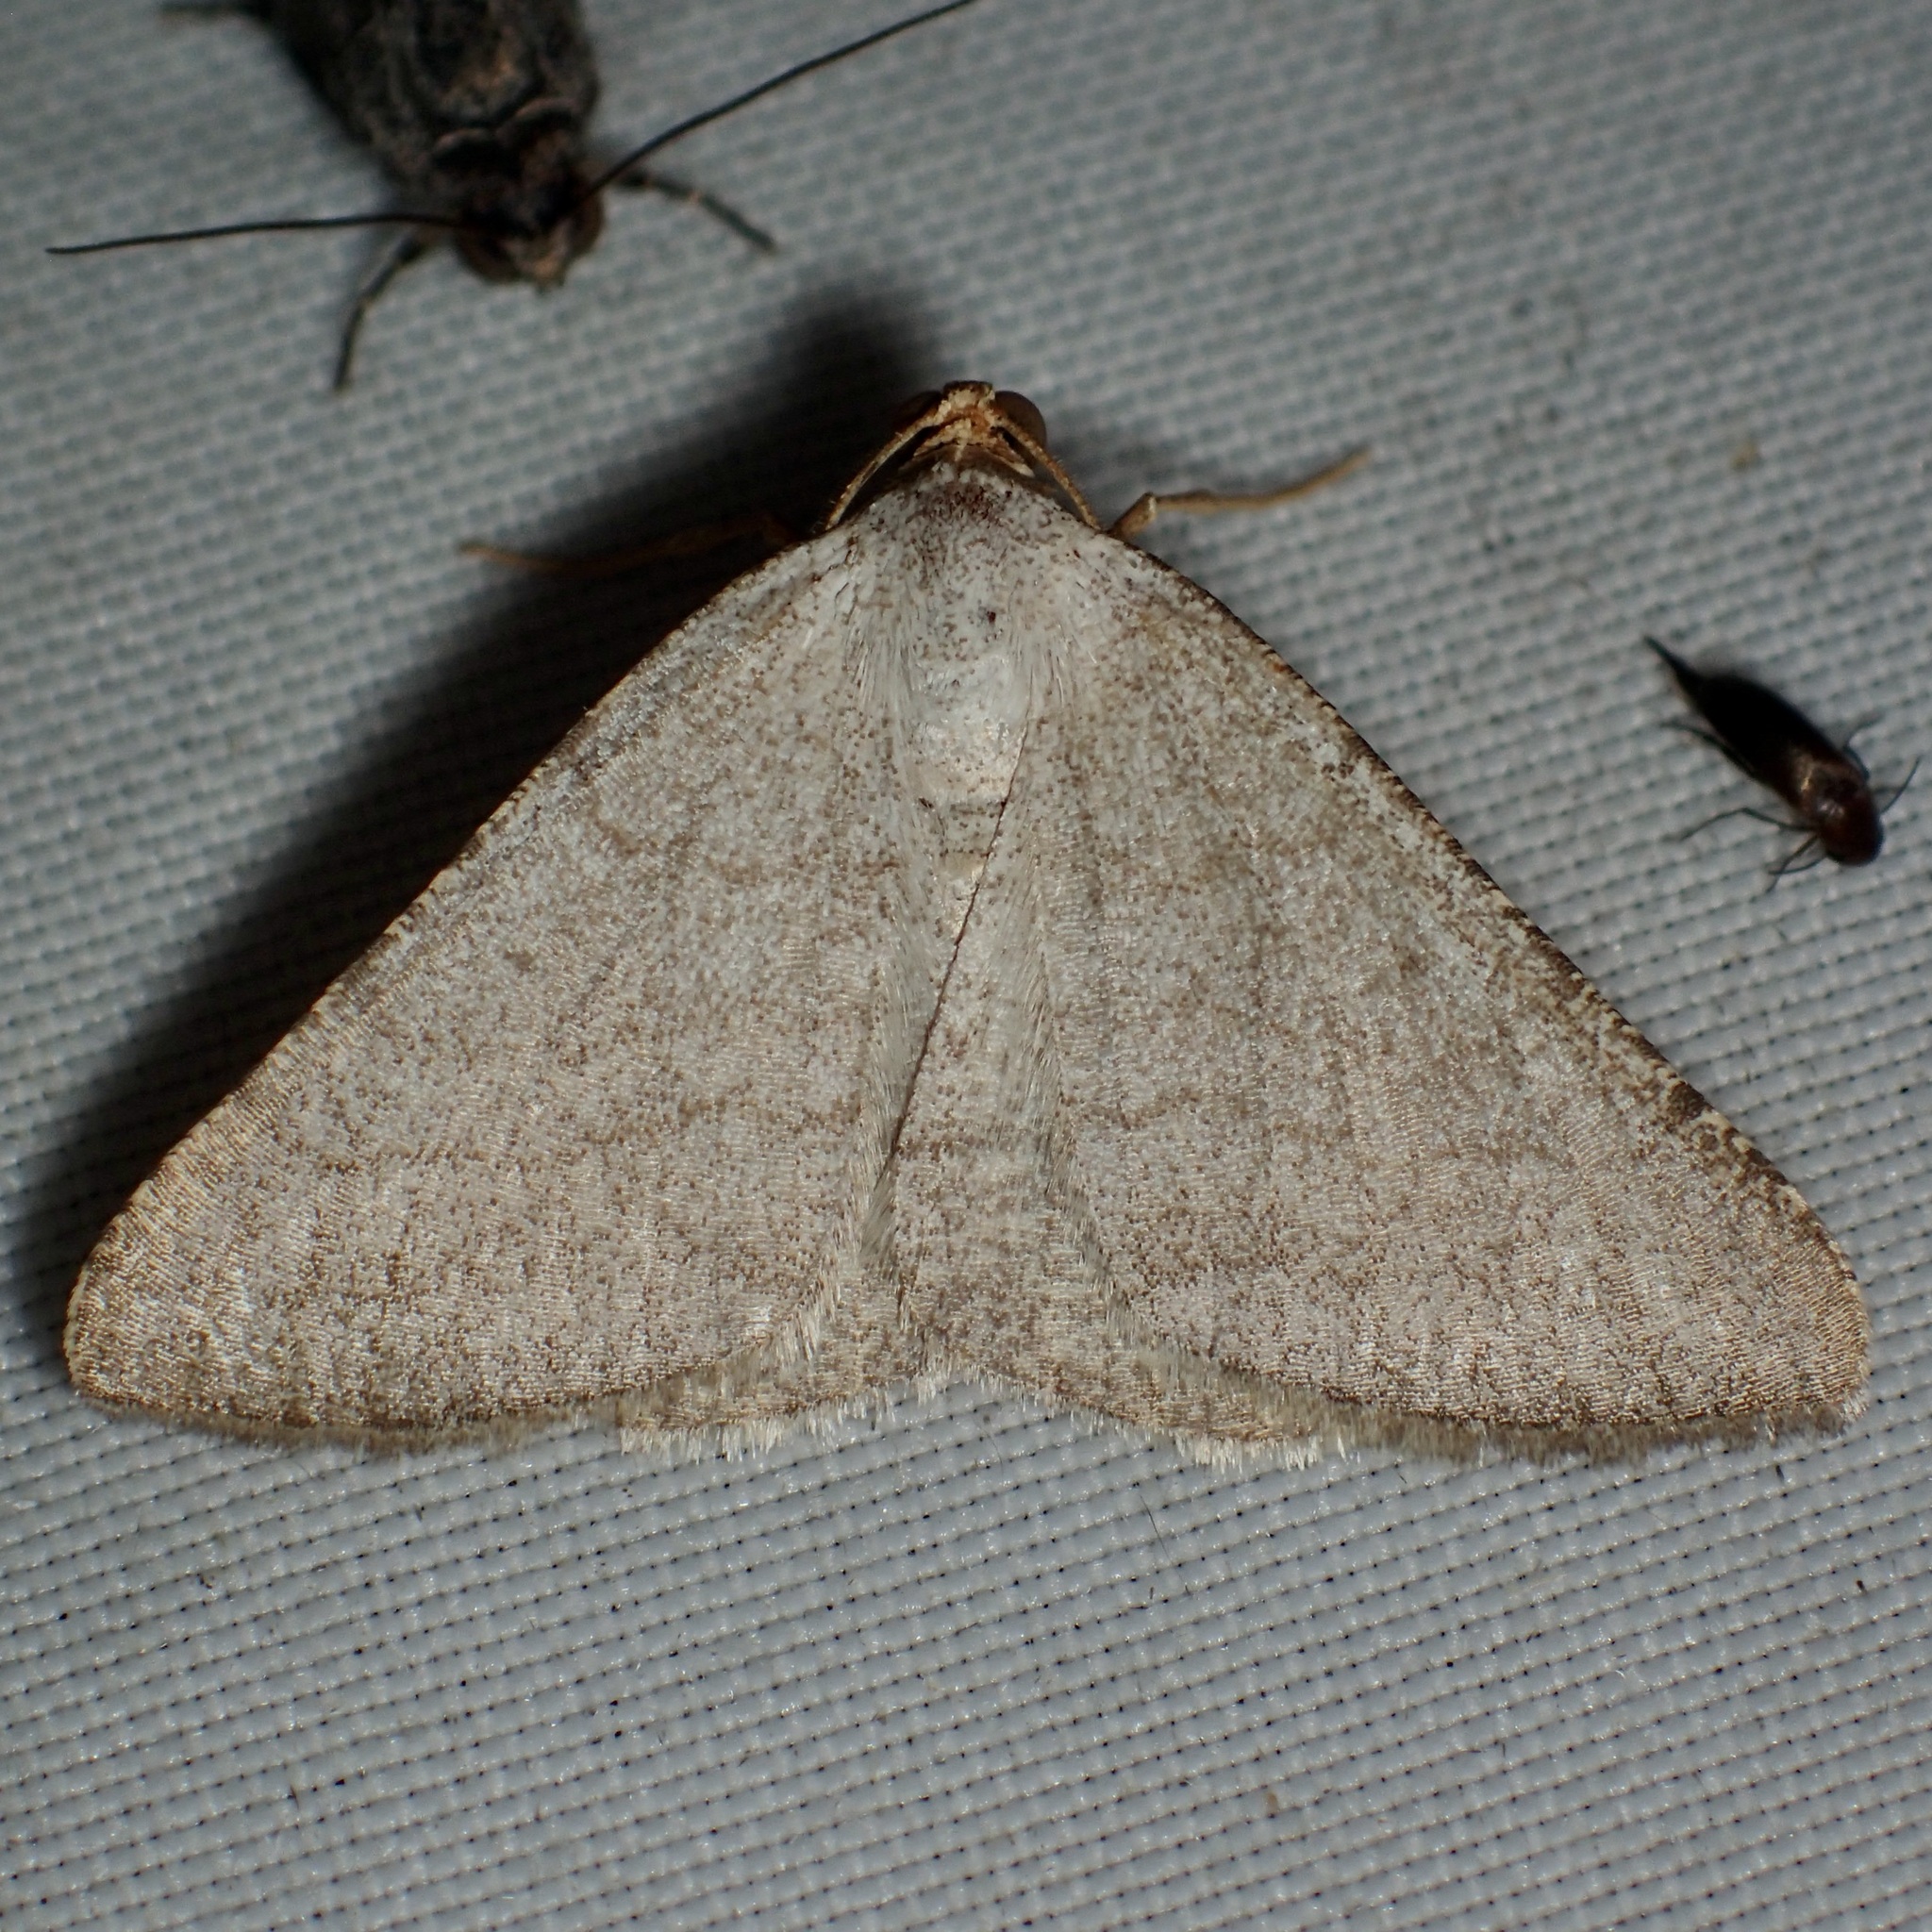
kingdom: Animalia
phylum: Arthropoda
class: Insecta
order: Lepidoptera
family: Geometridae
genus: Macaria
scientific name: Macaria tenebrosata
